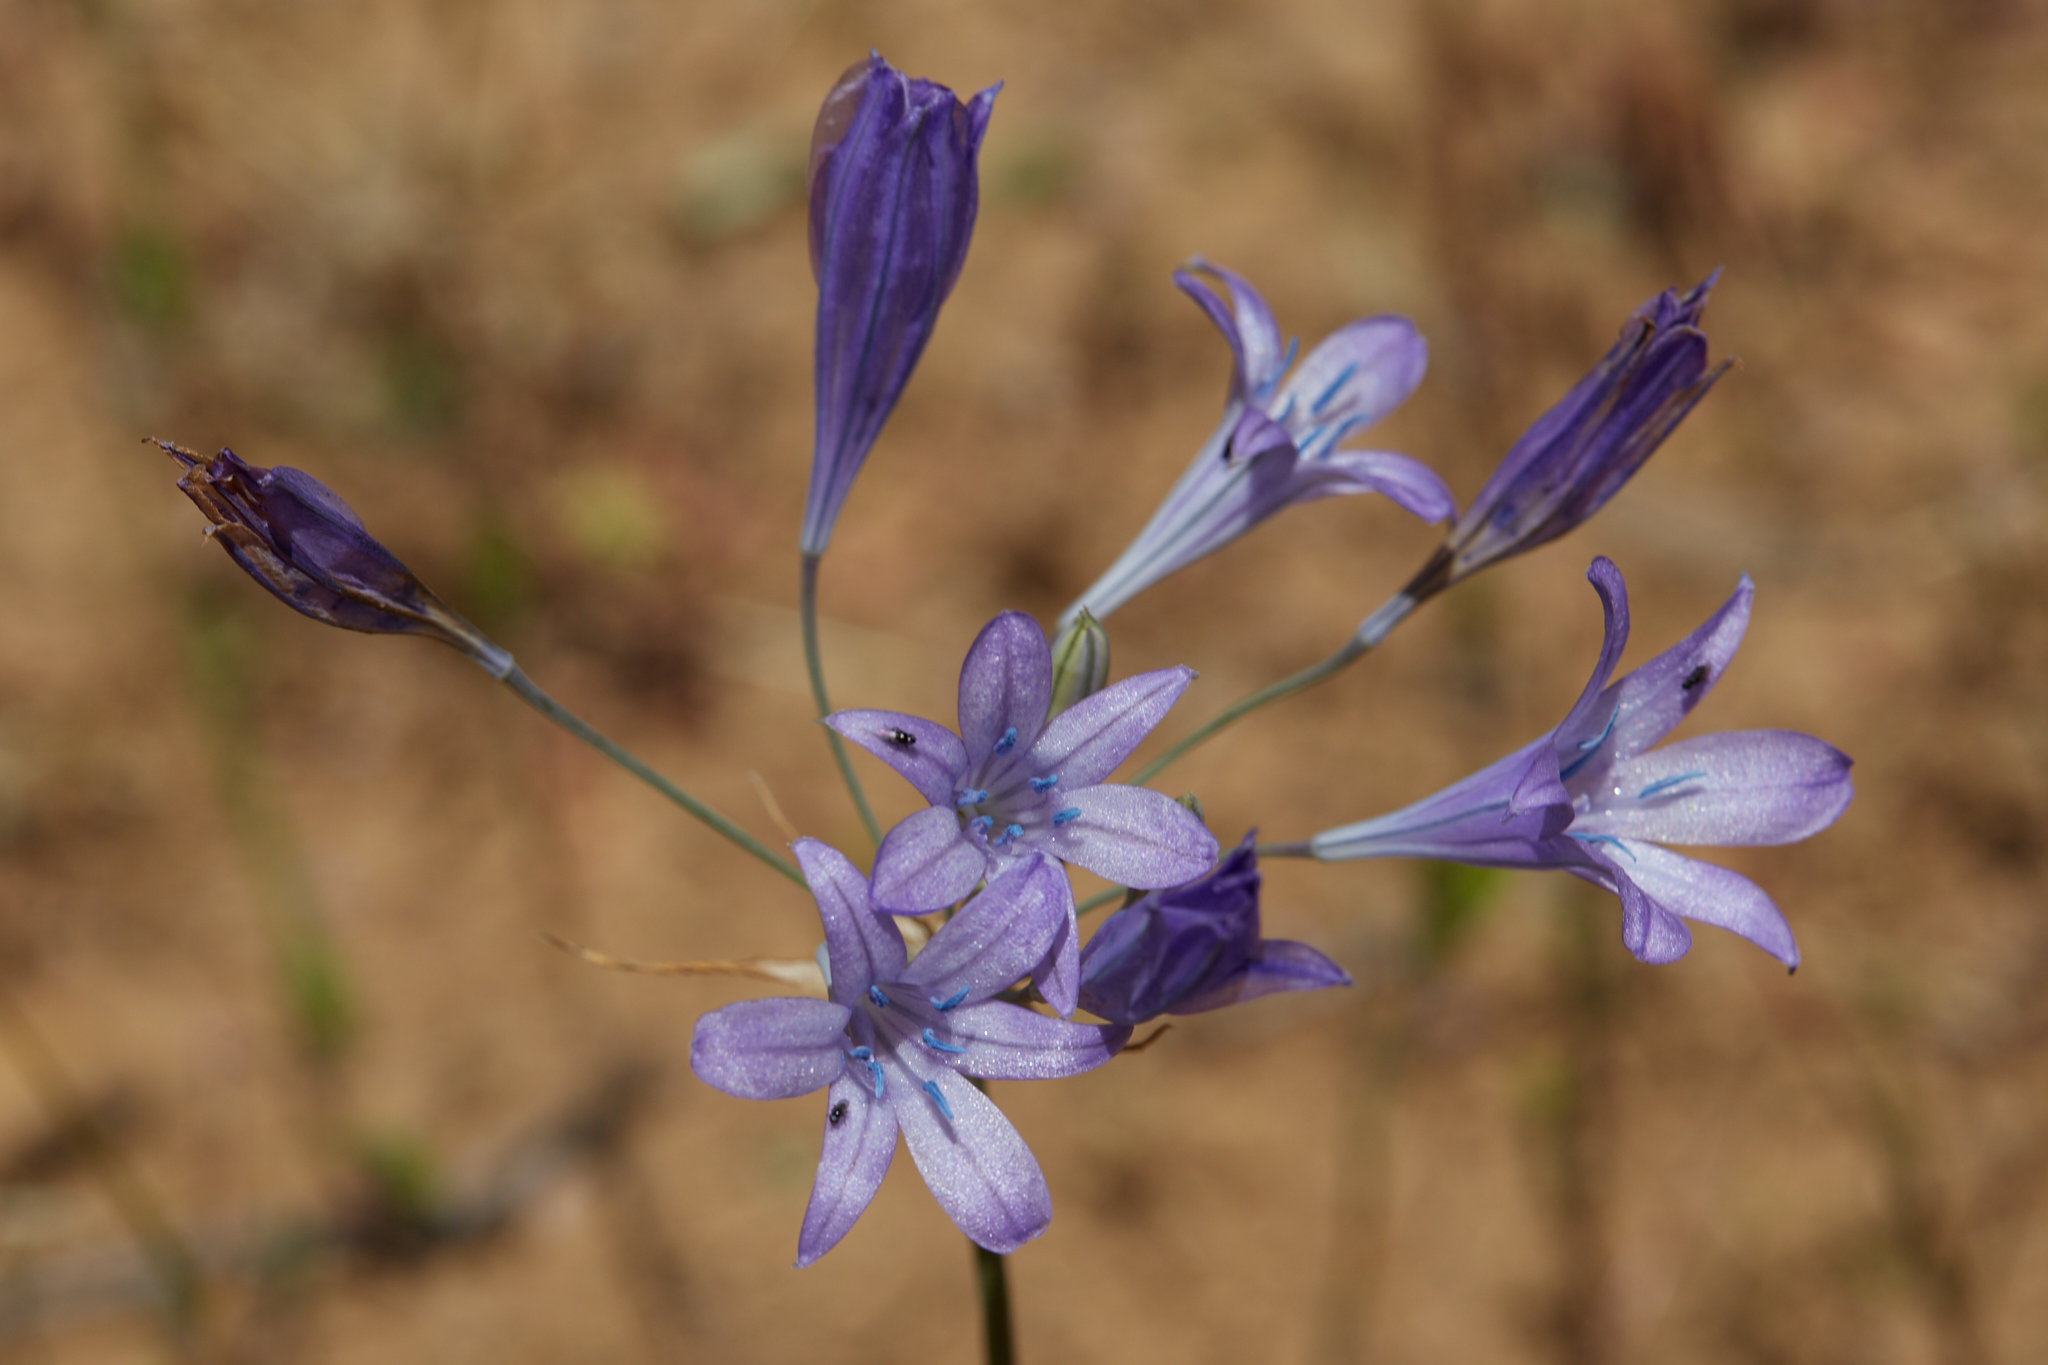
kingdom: Plantae
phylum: Tracheophyta
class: Liliopsida
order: Asparagales
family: Asparagaceae
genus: Triteleia
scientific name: Triteleia laxa
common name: Triplet-lily
